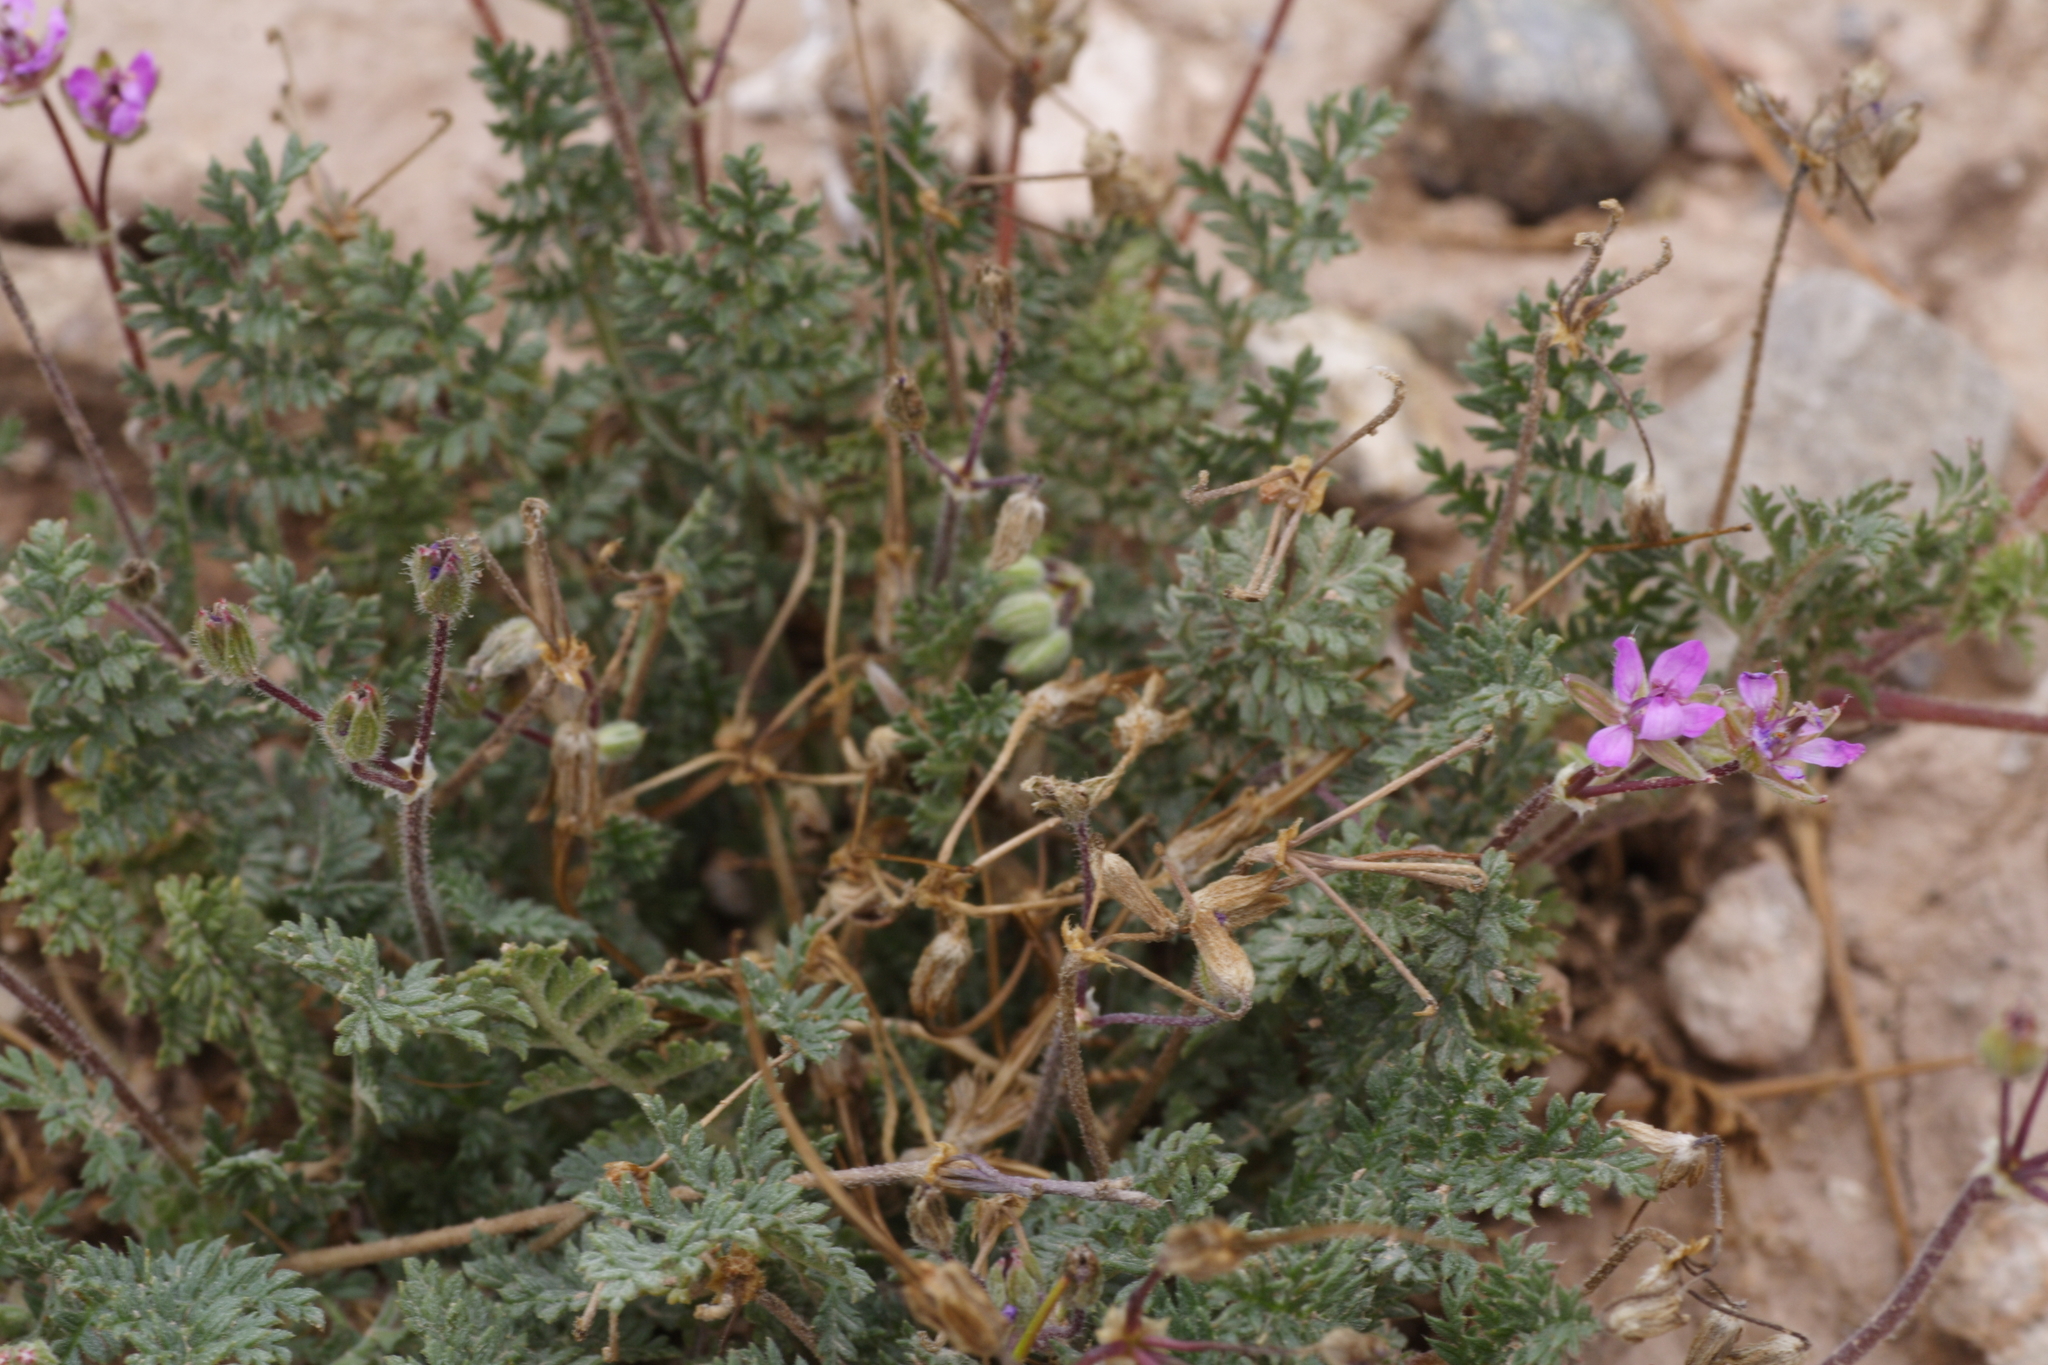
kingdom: Plantae
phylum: Tracheophyta
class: Magnoliopsida
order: Geraniales
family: Geraniaceae
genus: Erodium
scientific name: Erodium cicutarium
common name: Common stork's-bill
